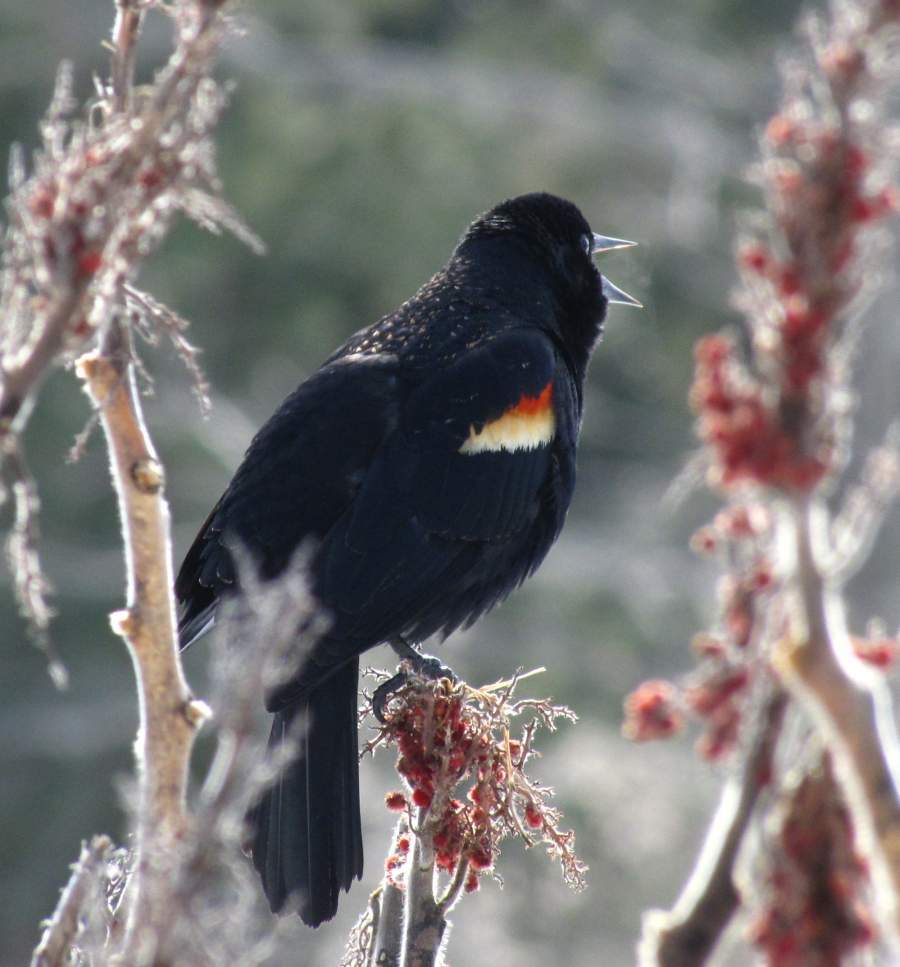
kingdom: Animalia
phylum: Chordata
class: Aves
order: Passeriformes
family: Icteridae
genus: Agelaius
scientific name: Agelaius phoeniceus
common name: Red-winged blackbird
